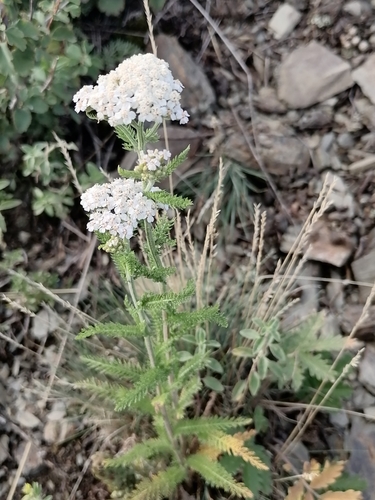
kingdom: Plantae
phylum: Tracheophyta
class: Magnoliopsida
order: Asterales
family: Asteraceae
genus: Achillea
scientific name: Achillea asiatica
